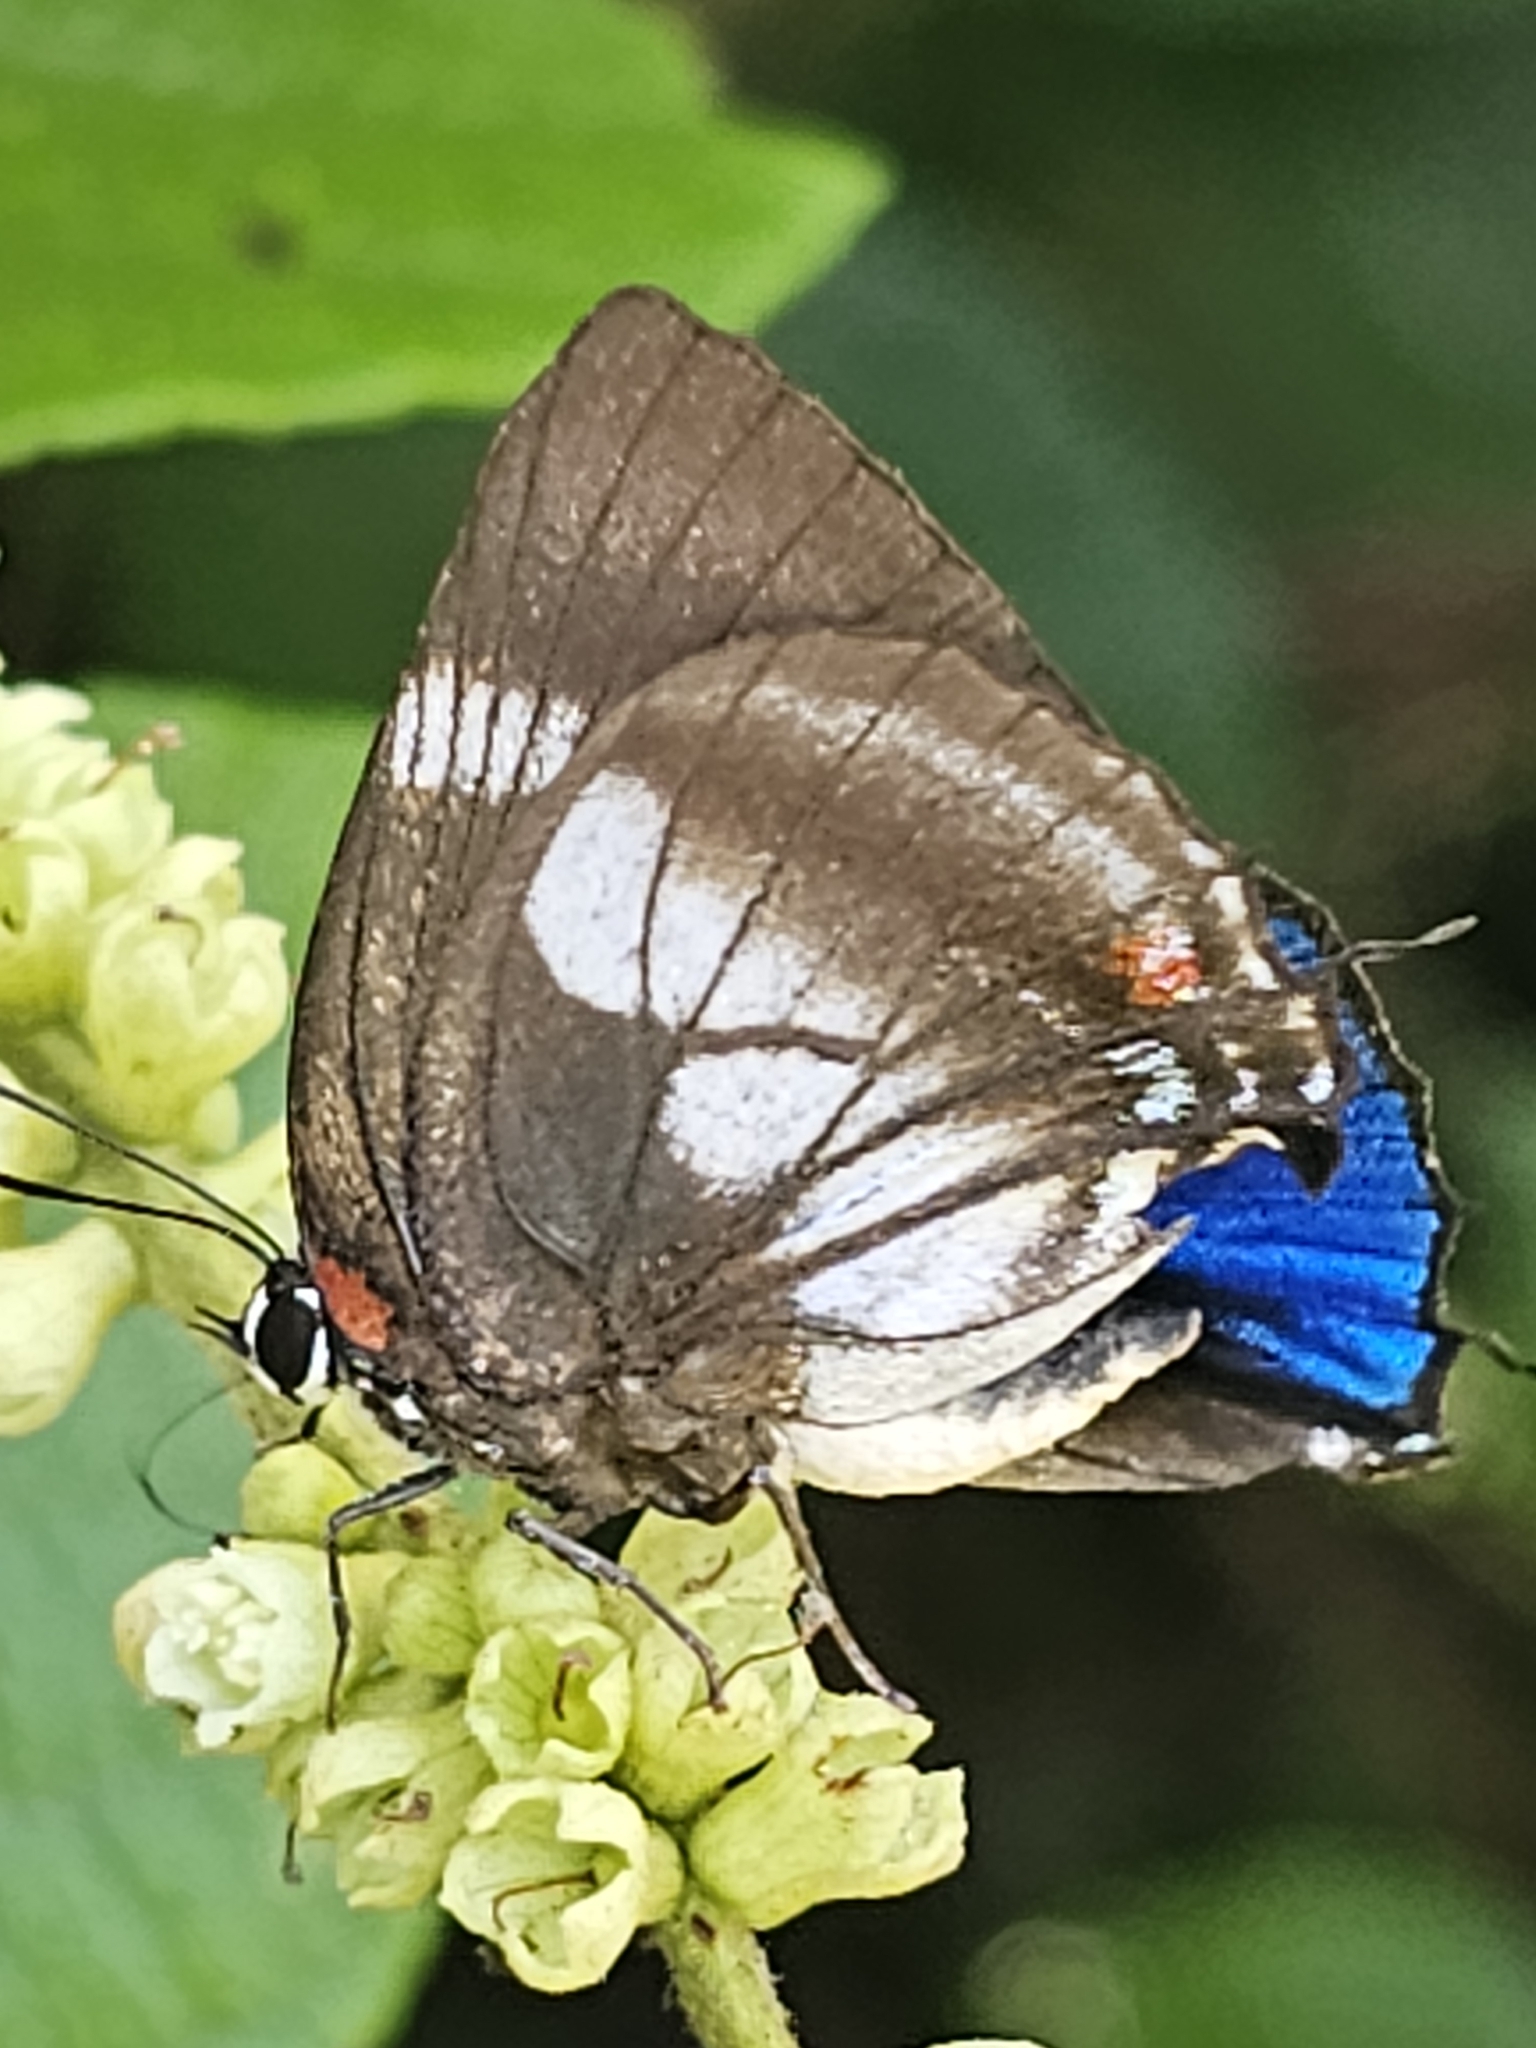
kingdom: Animalia
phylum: Arthropoda
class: Insecta
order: Lepidoptera
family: Lycaenidae
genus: Panthiades
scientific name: Panthiades pelion
